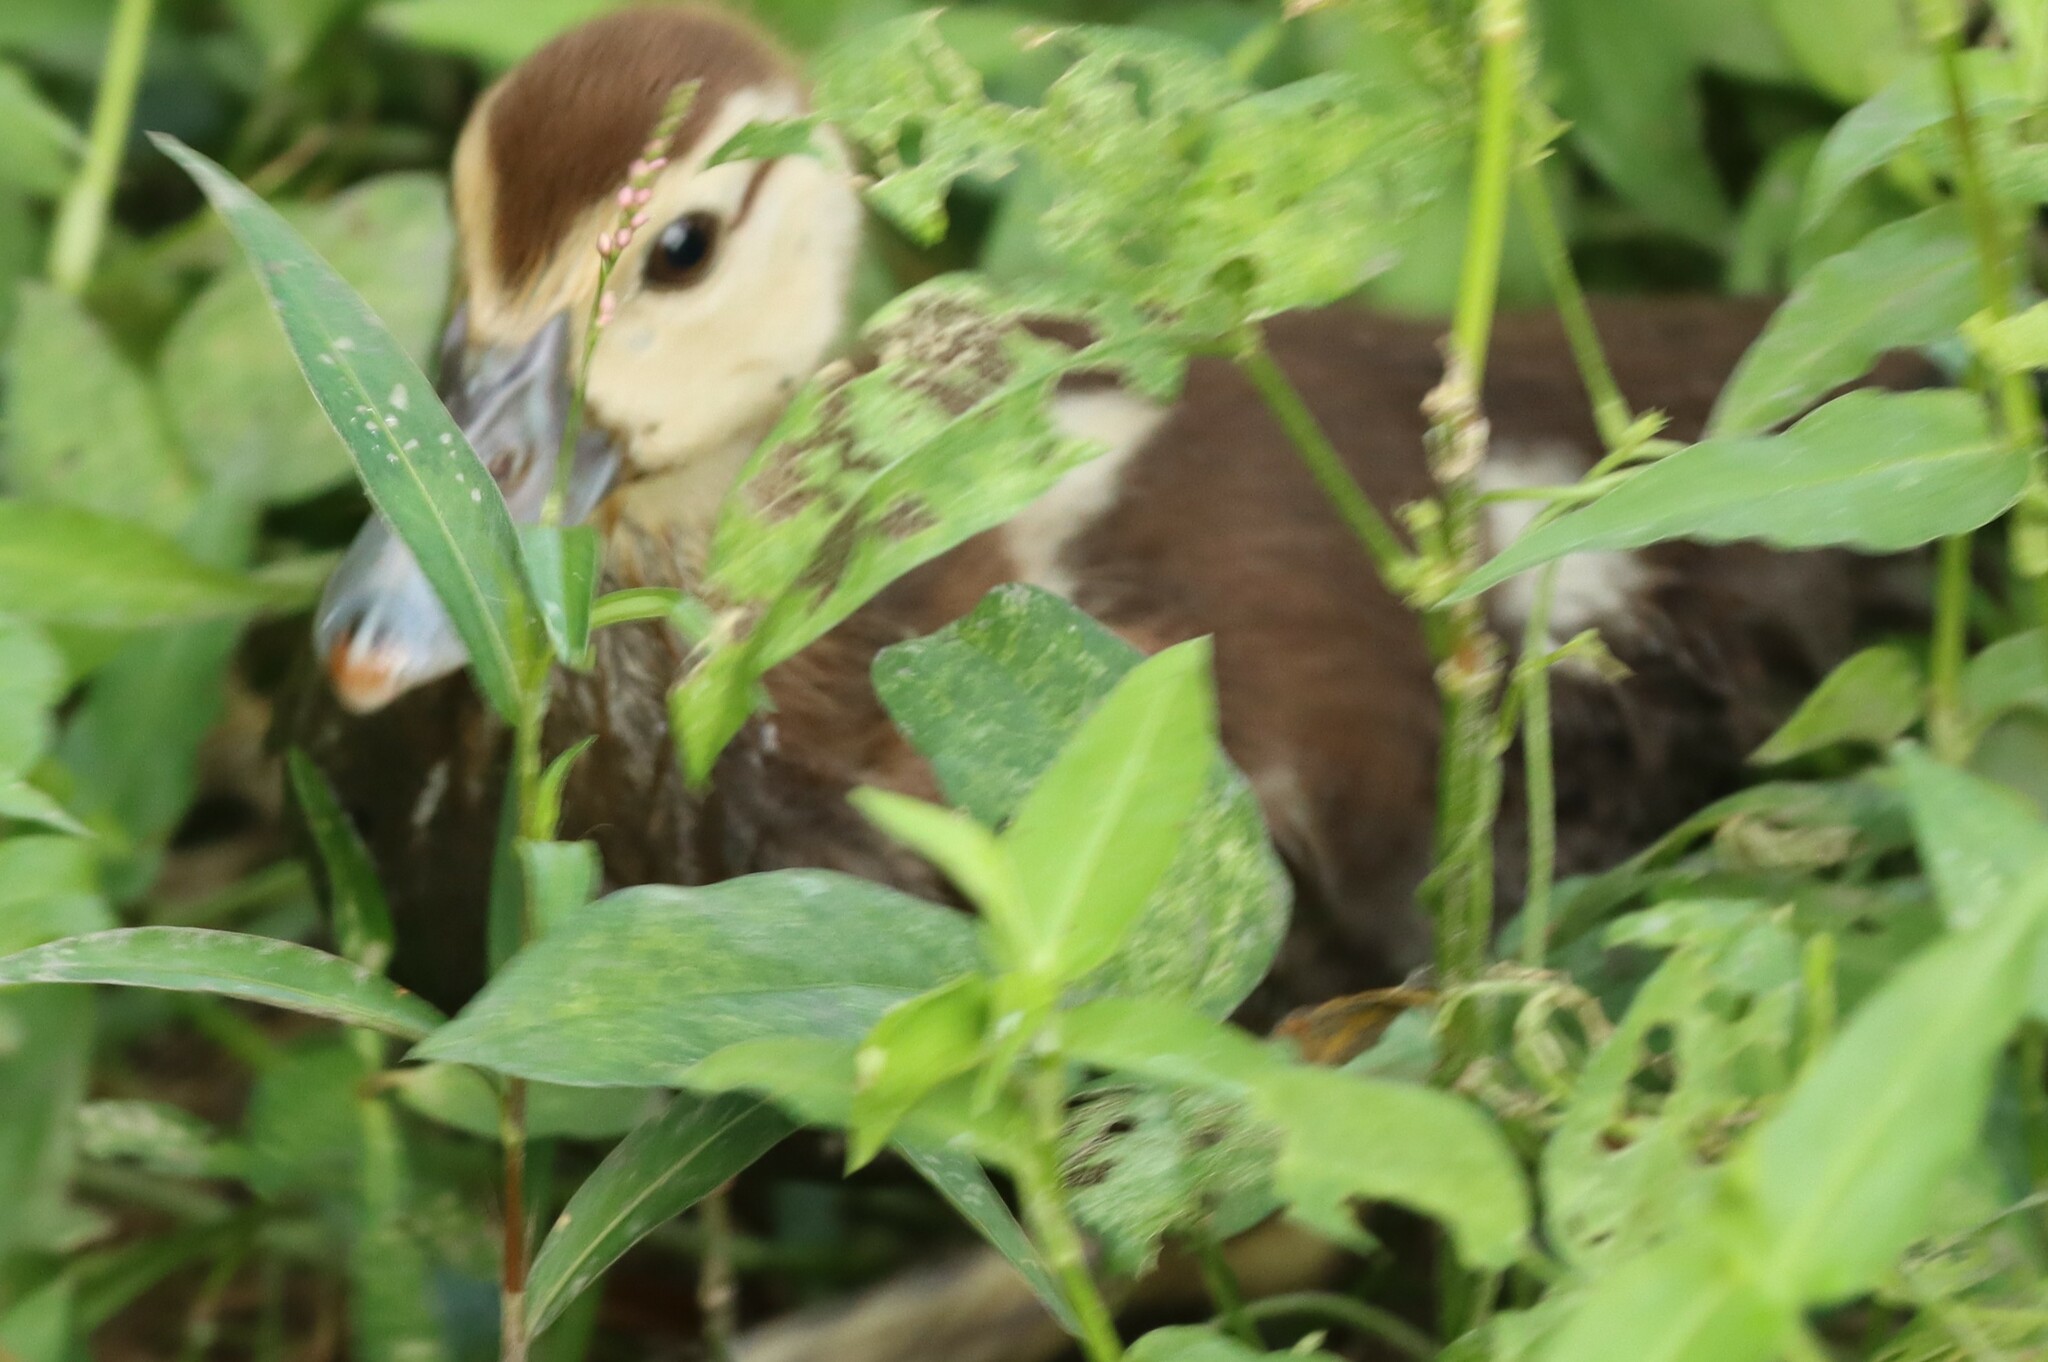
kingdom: Animalia
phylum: Chordata
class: Aves
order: Anseriformes
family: Anatidae
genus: Cairina
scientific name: Cairina moschata
